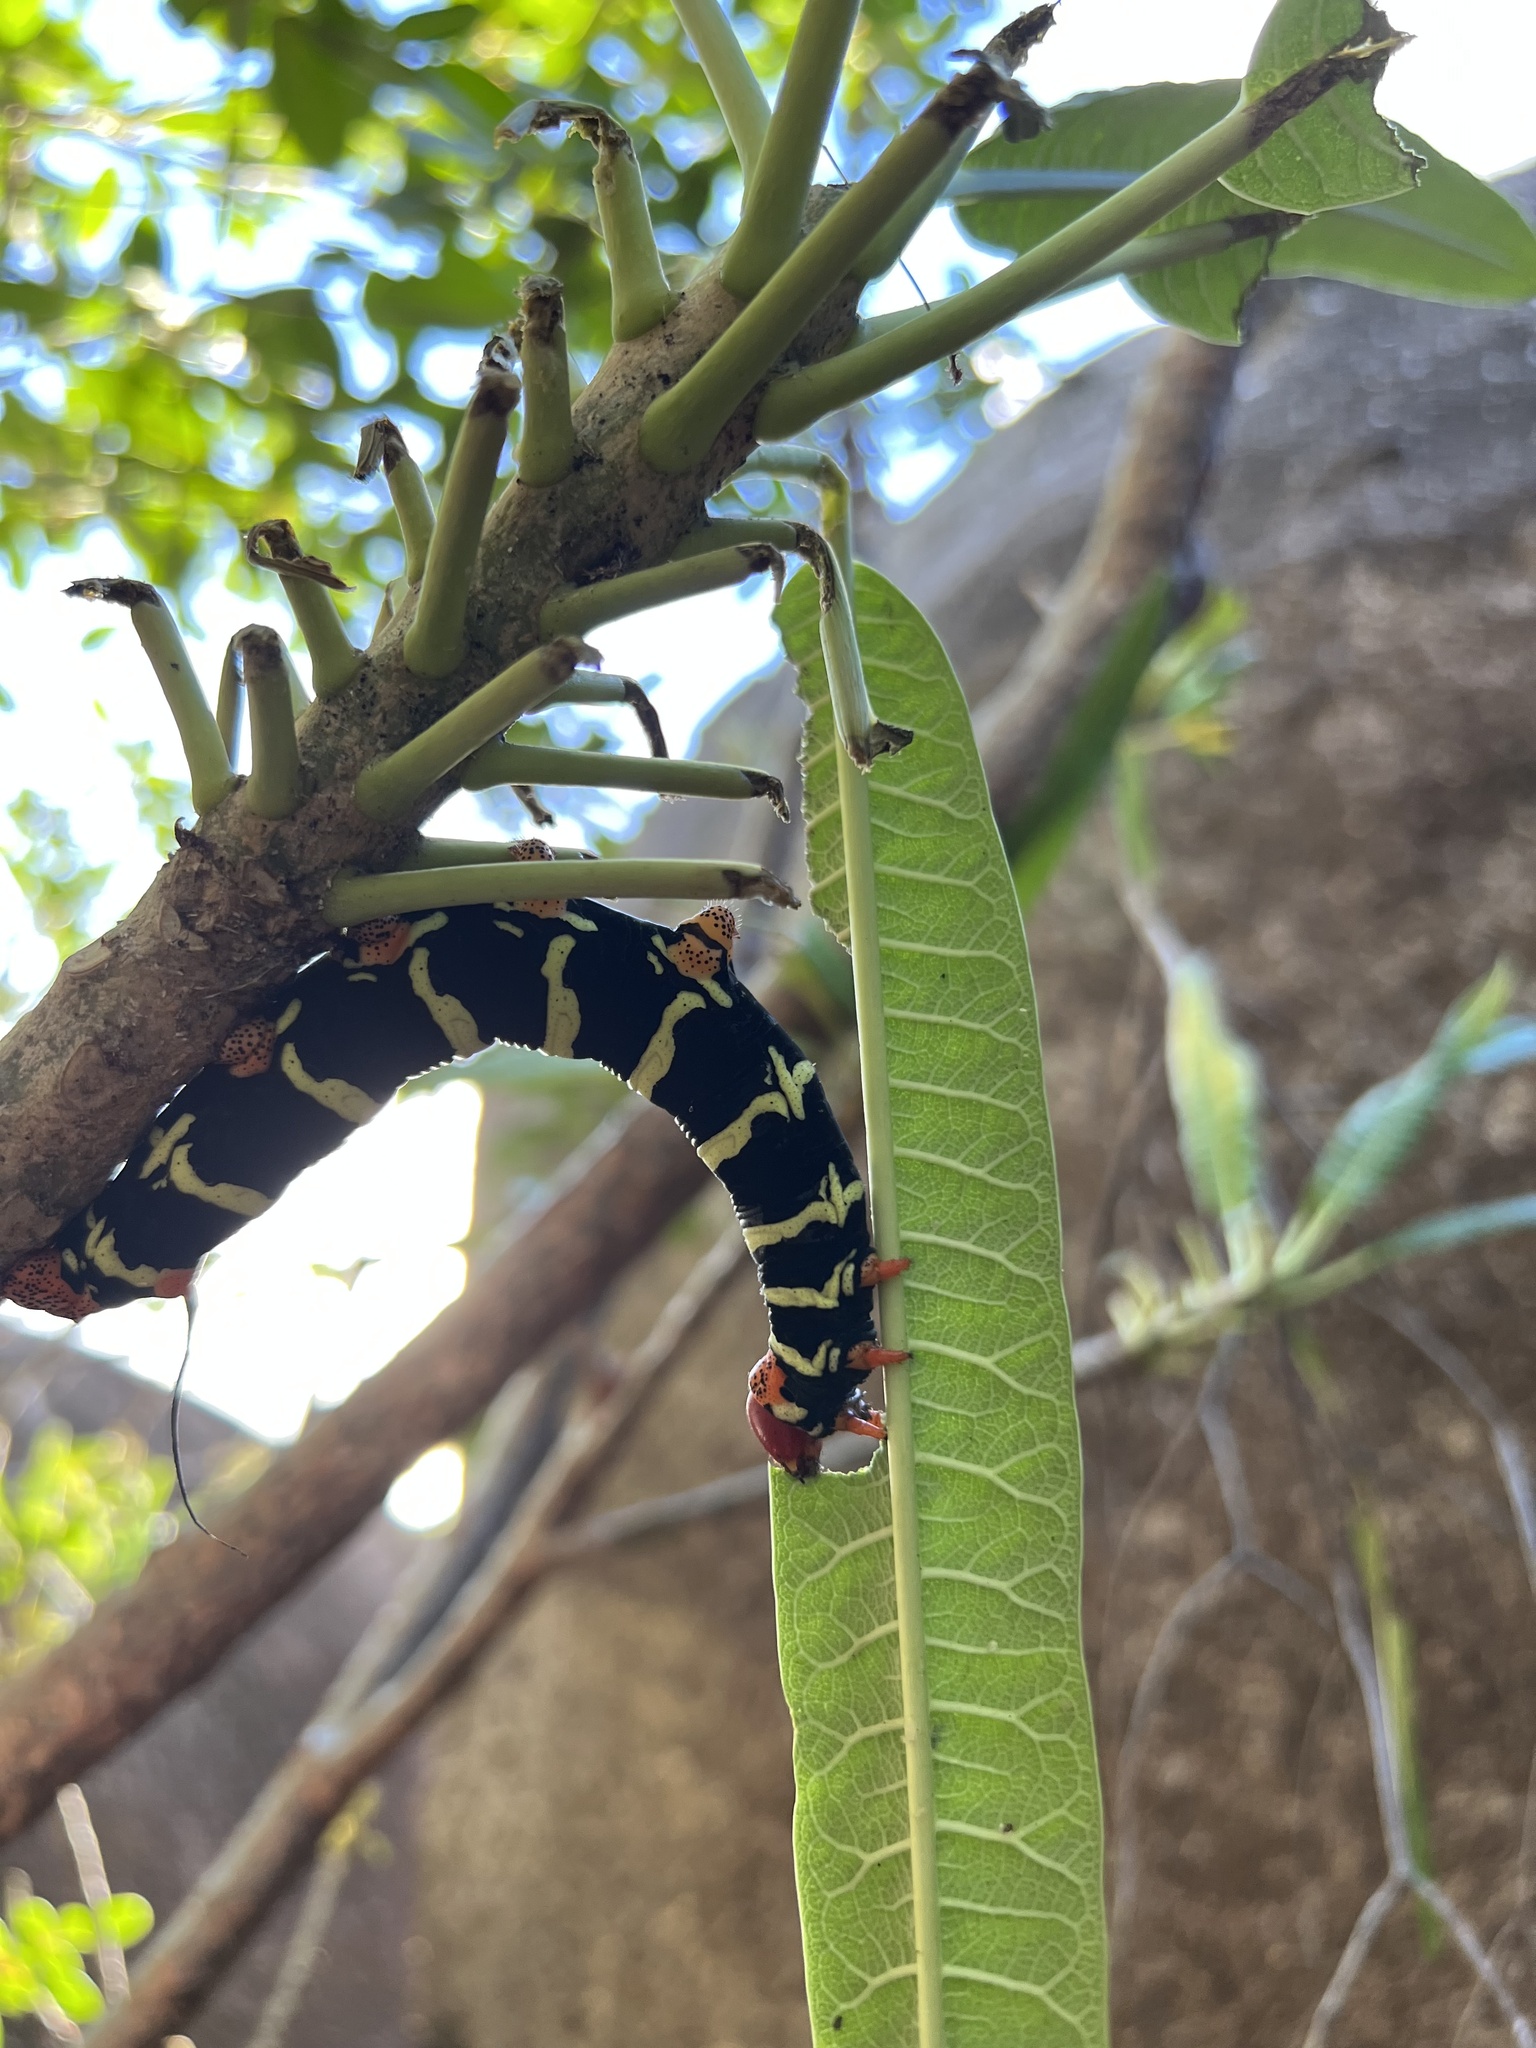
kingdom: Animalia
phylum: Arthropoda
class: Insecta
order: Lepidoptera
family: Sphingidae
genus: Pseudosphinx
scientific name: Pseudosphinx tetrio
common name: Tetrio sphinx
